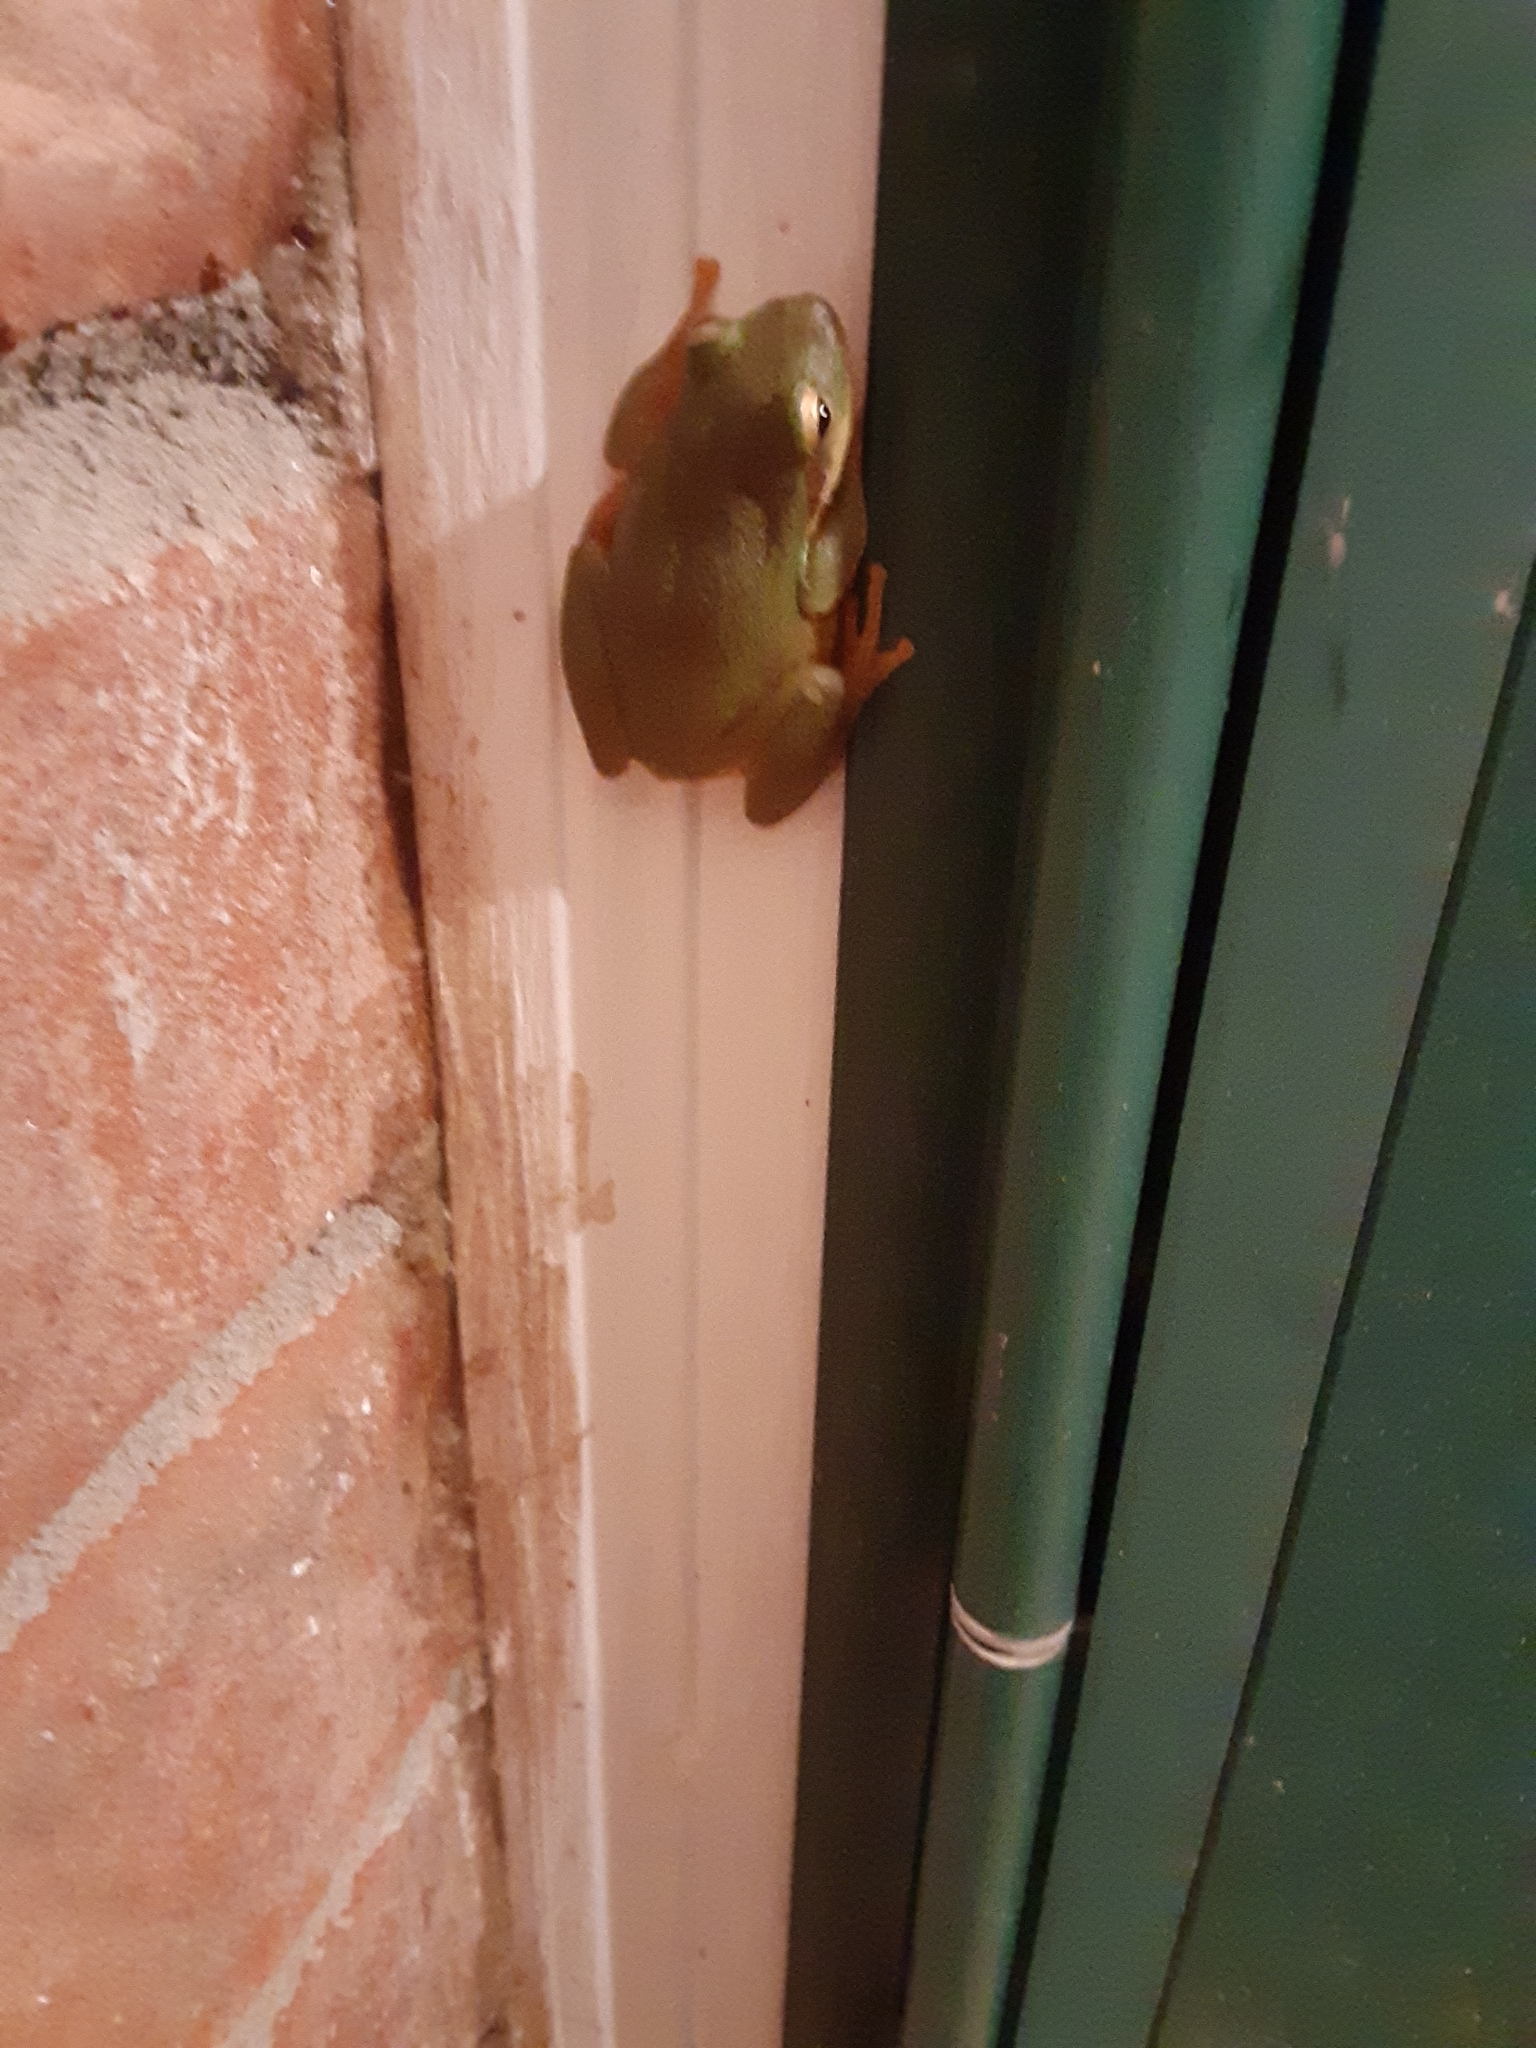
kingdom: Animalia
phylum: Chordata
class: Amphibia
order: Anura
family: Hylidae
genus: Dryophytes
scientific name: Dryophytes squirellus
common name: Squirrel treefrog
